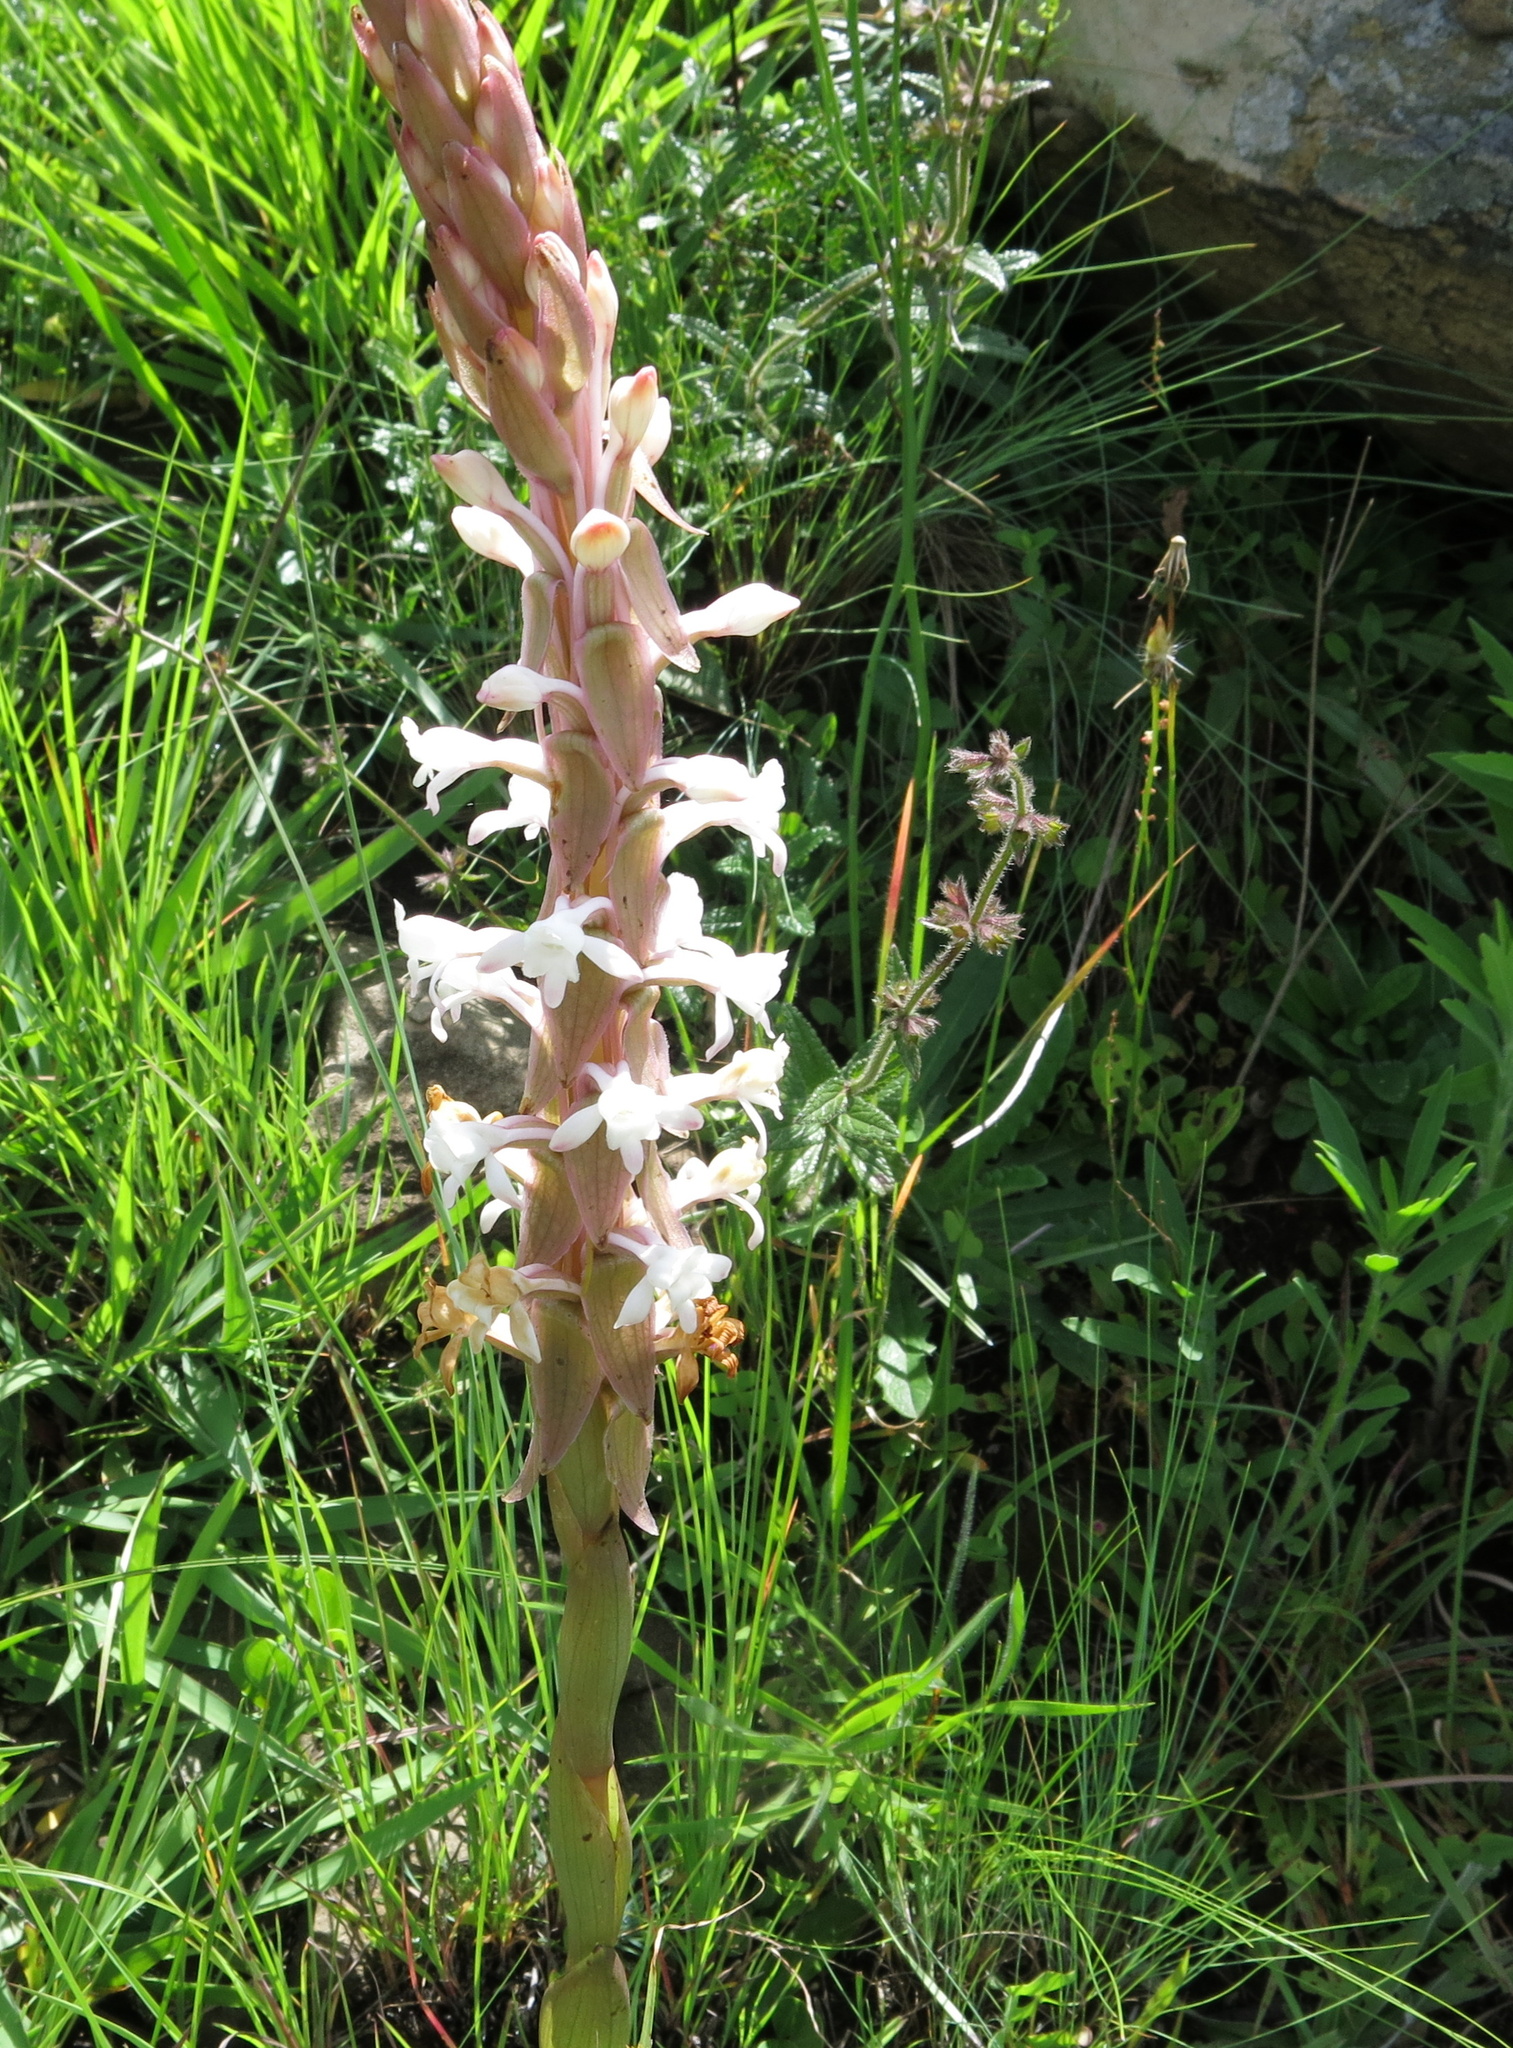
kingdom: Plantae
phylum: Tracheophyta
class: Liliopsida
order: Asparagales
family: Orchidaceae
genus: Satyrium
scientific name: Satyrium longicauda
